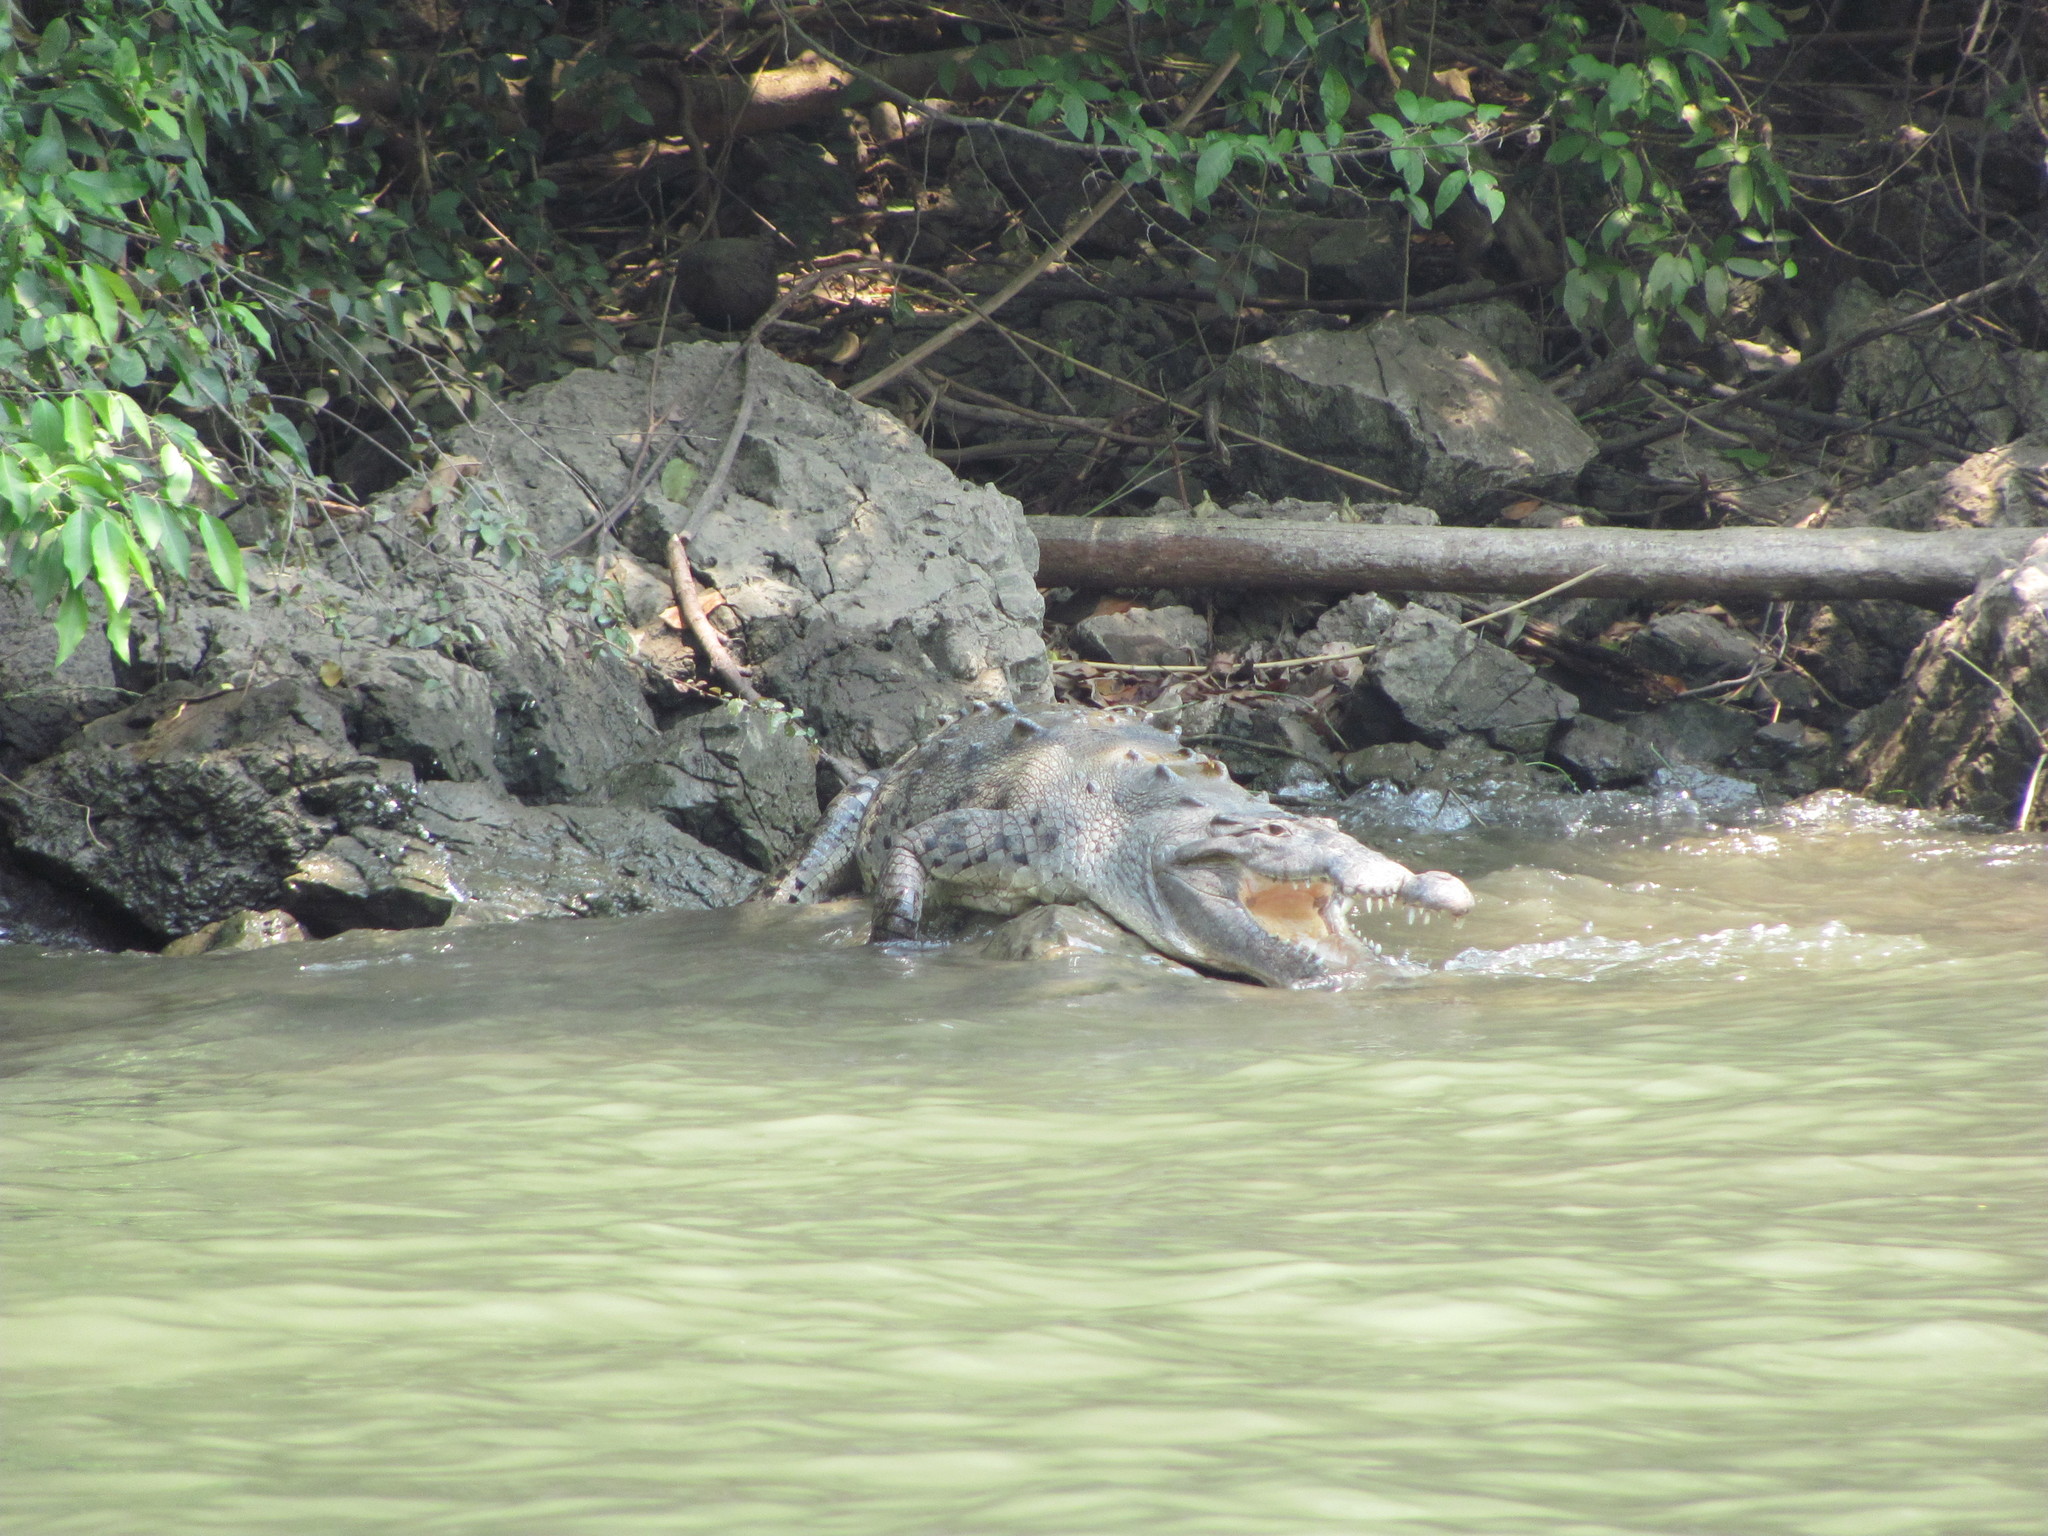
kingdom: Animalia
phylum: Chordata
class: Crocodylia
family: Crocodylidae
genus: Crocodylus
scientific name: Crocodylus acutus
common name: American crocodile
